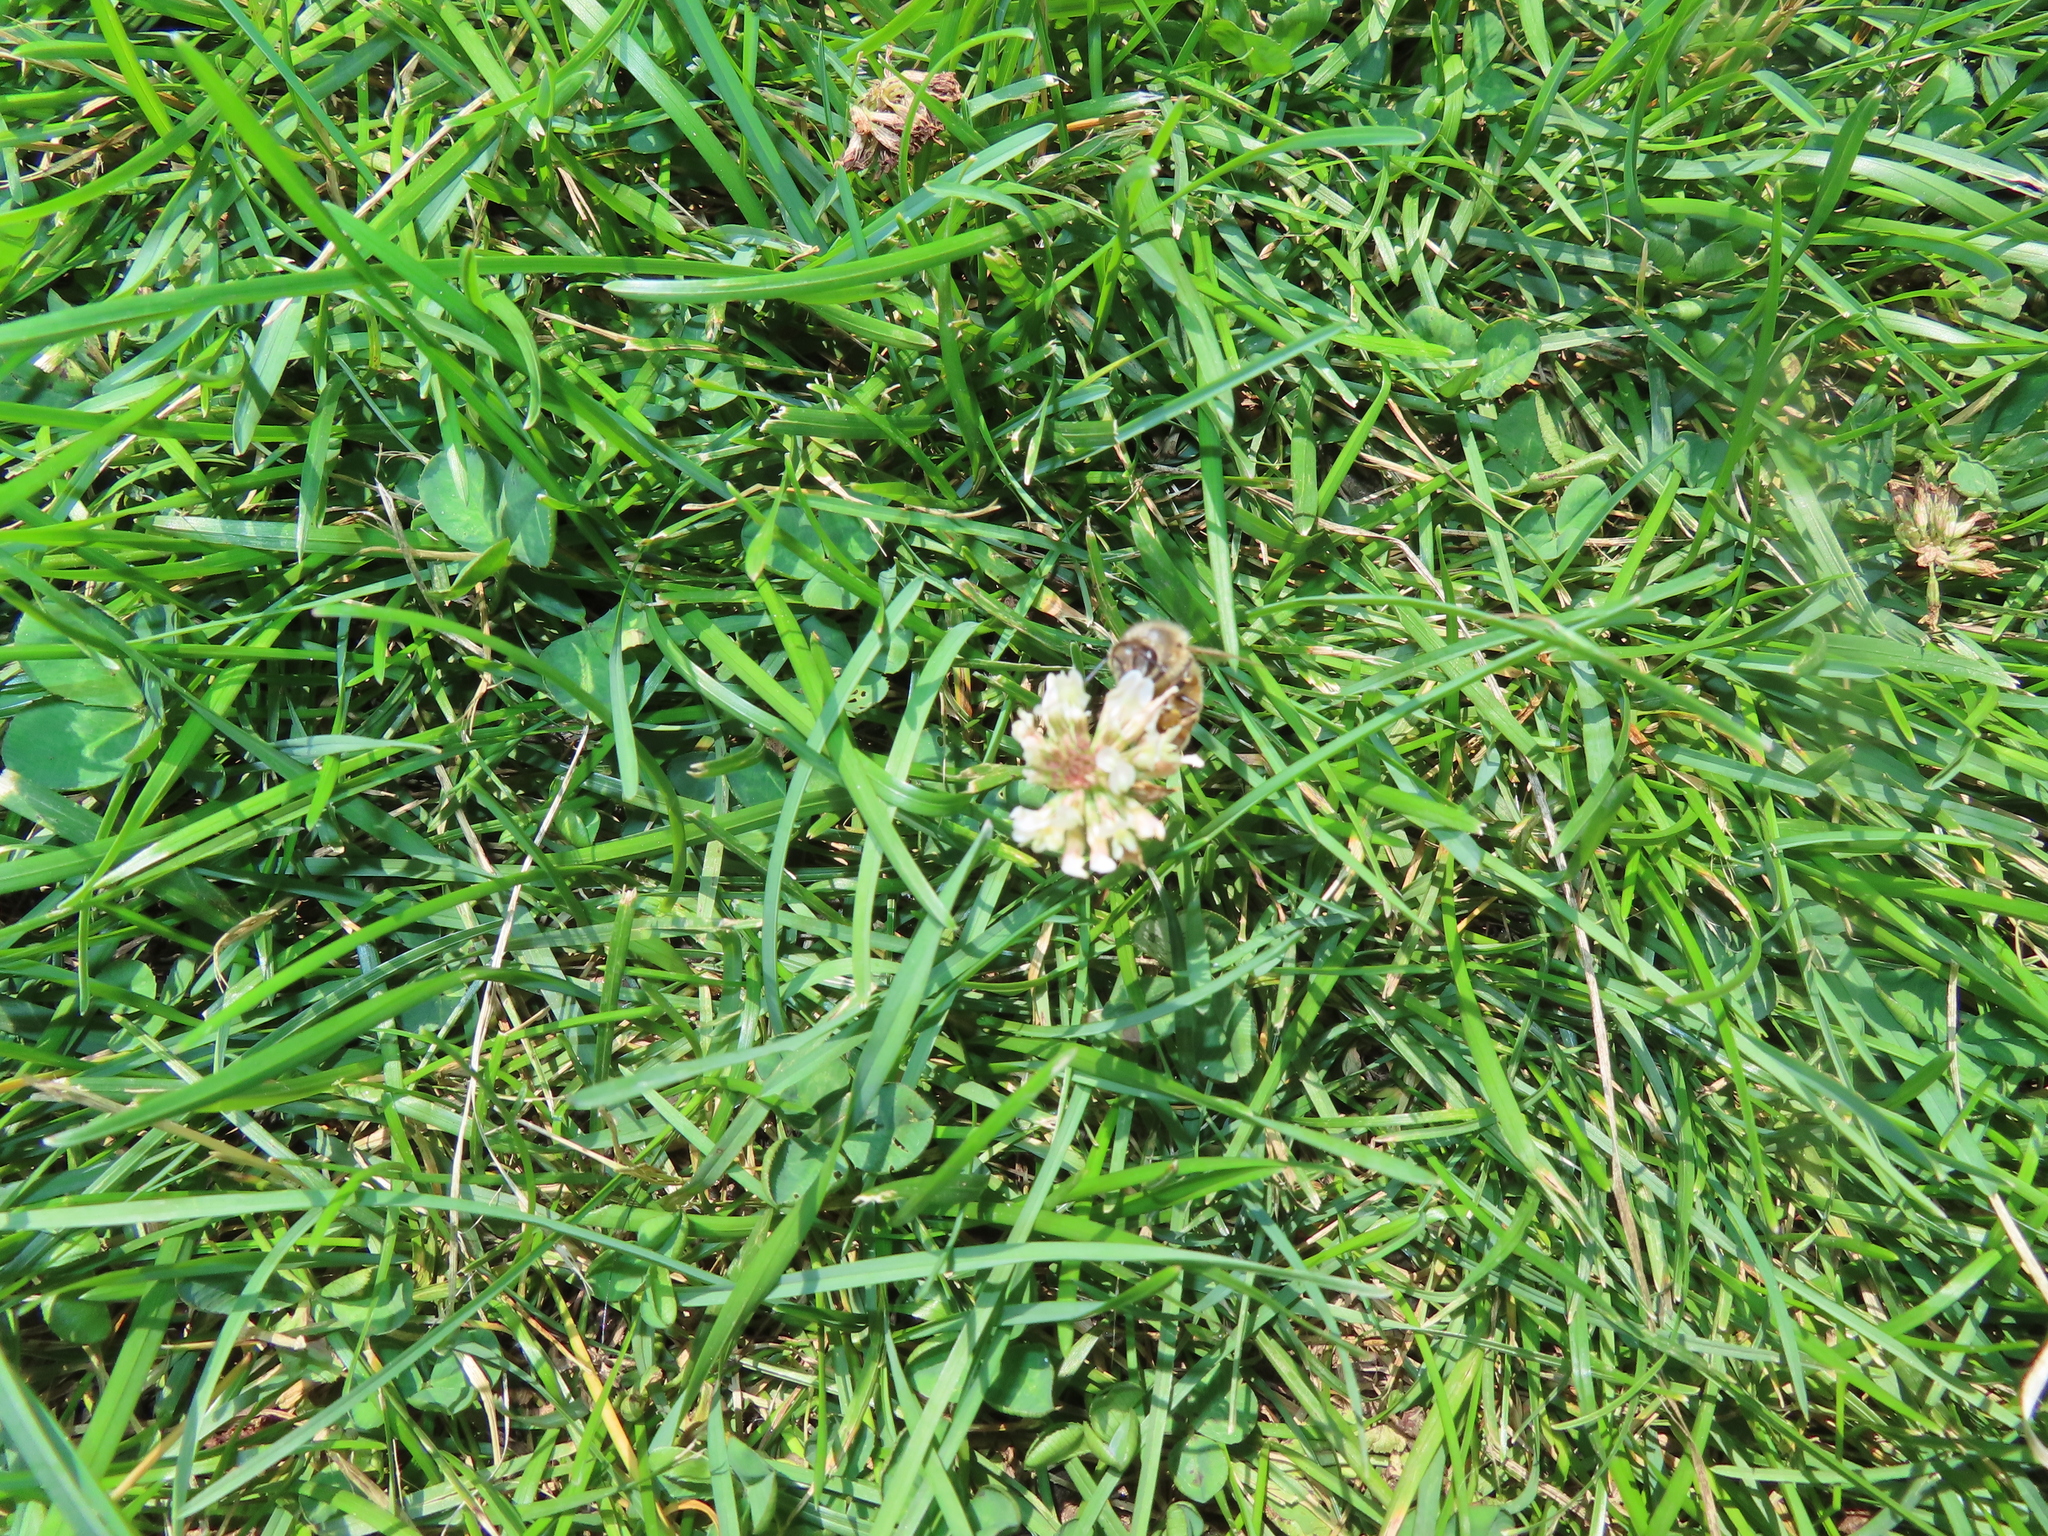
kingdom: Animalia
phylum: Arthropoda
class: Insecta
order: Hymenoptera
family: Apidae
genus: Apis
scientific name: Apis mellifera
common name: Honey bee
